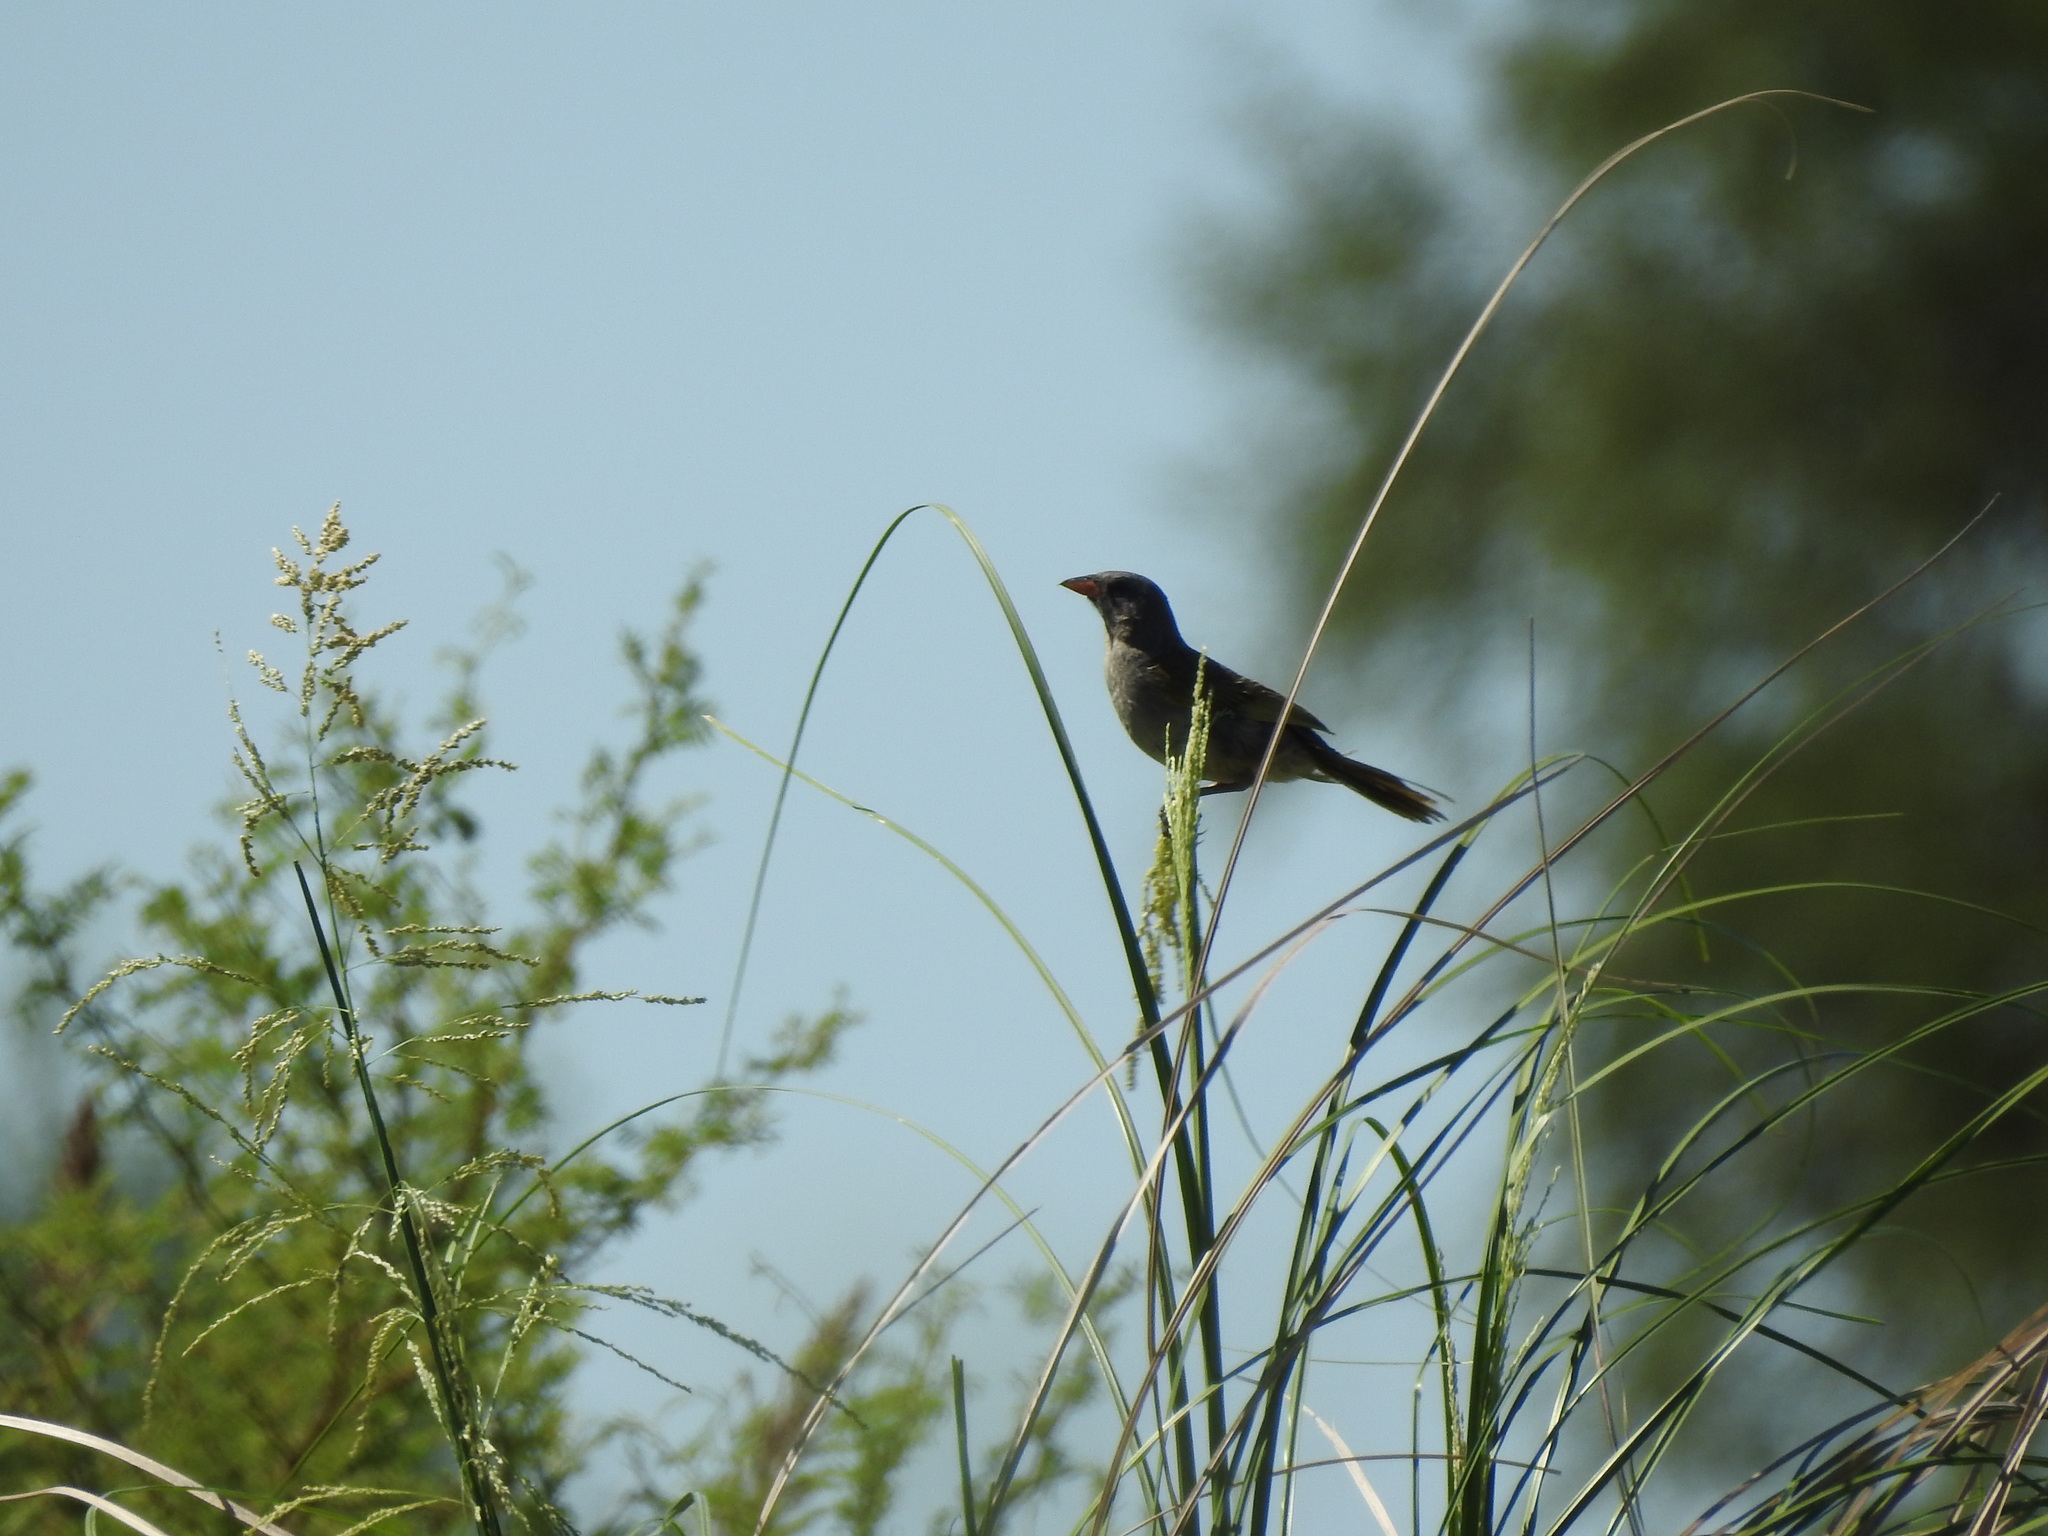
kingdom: Animalia
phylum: Chordata
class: Aves
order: Passeriformes
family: Thraupidae
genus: Embernagra
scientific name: Embernagra platensis
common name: Pampa finch
